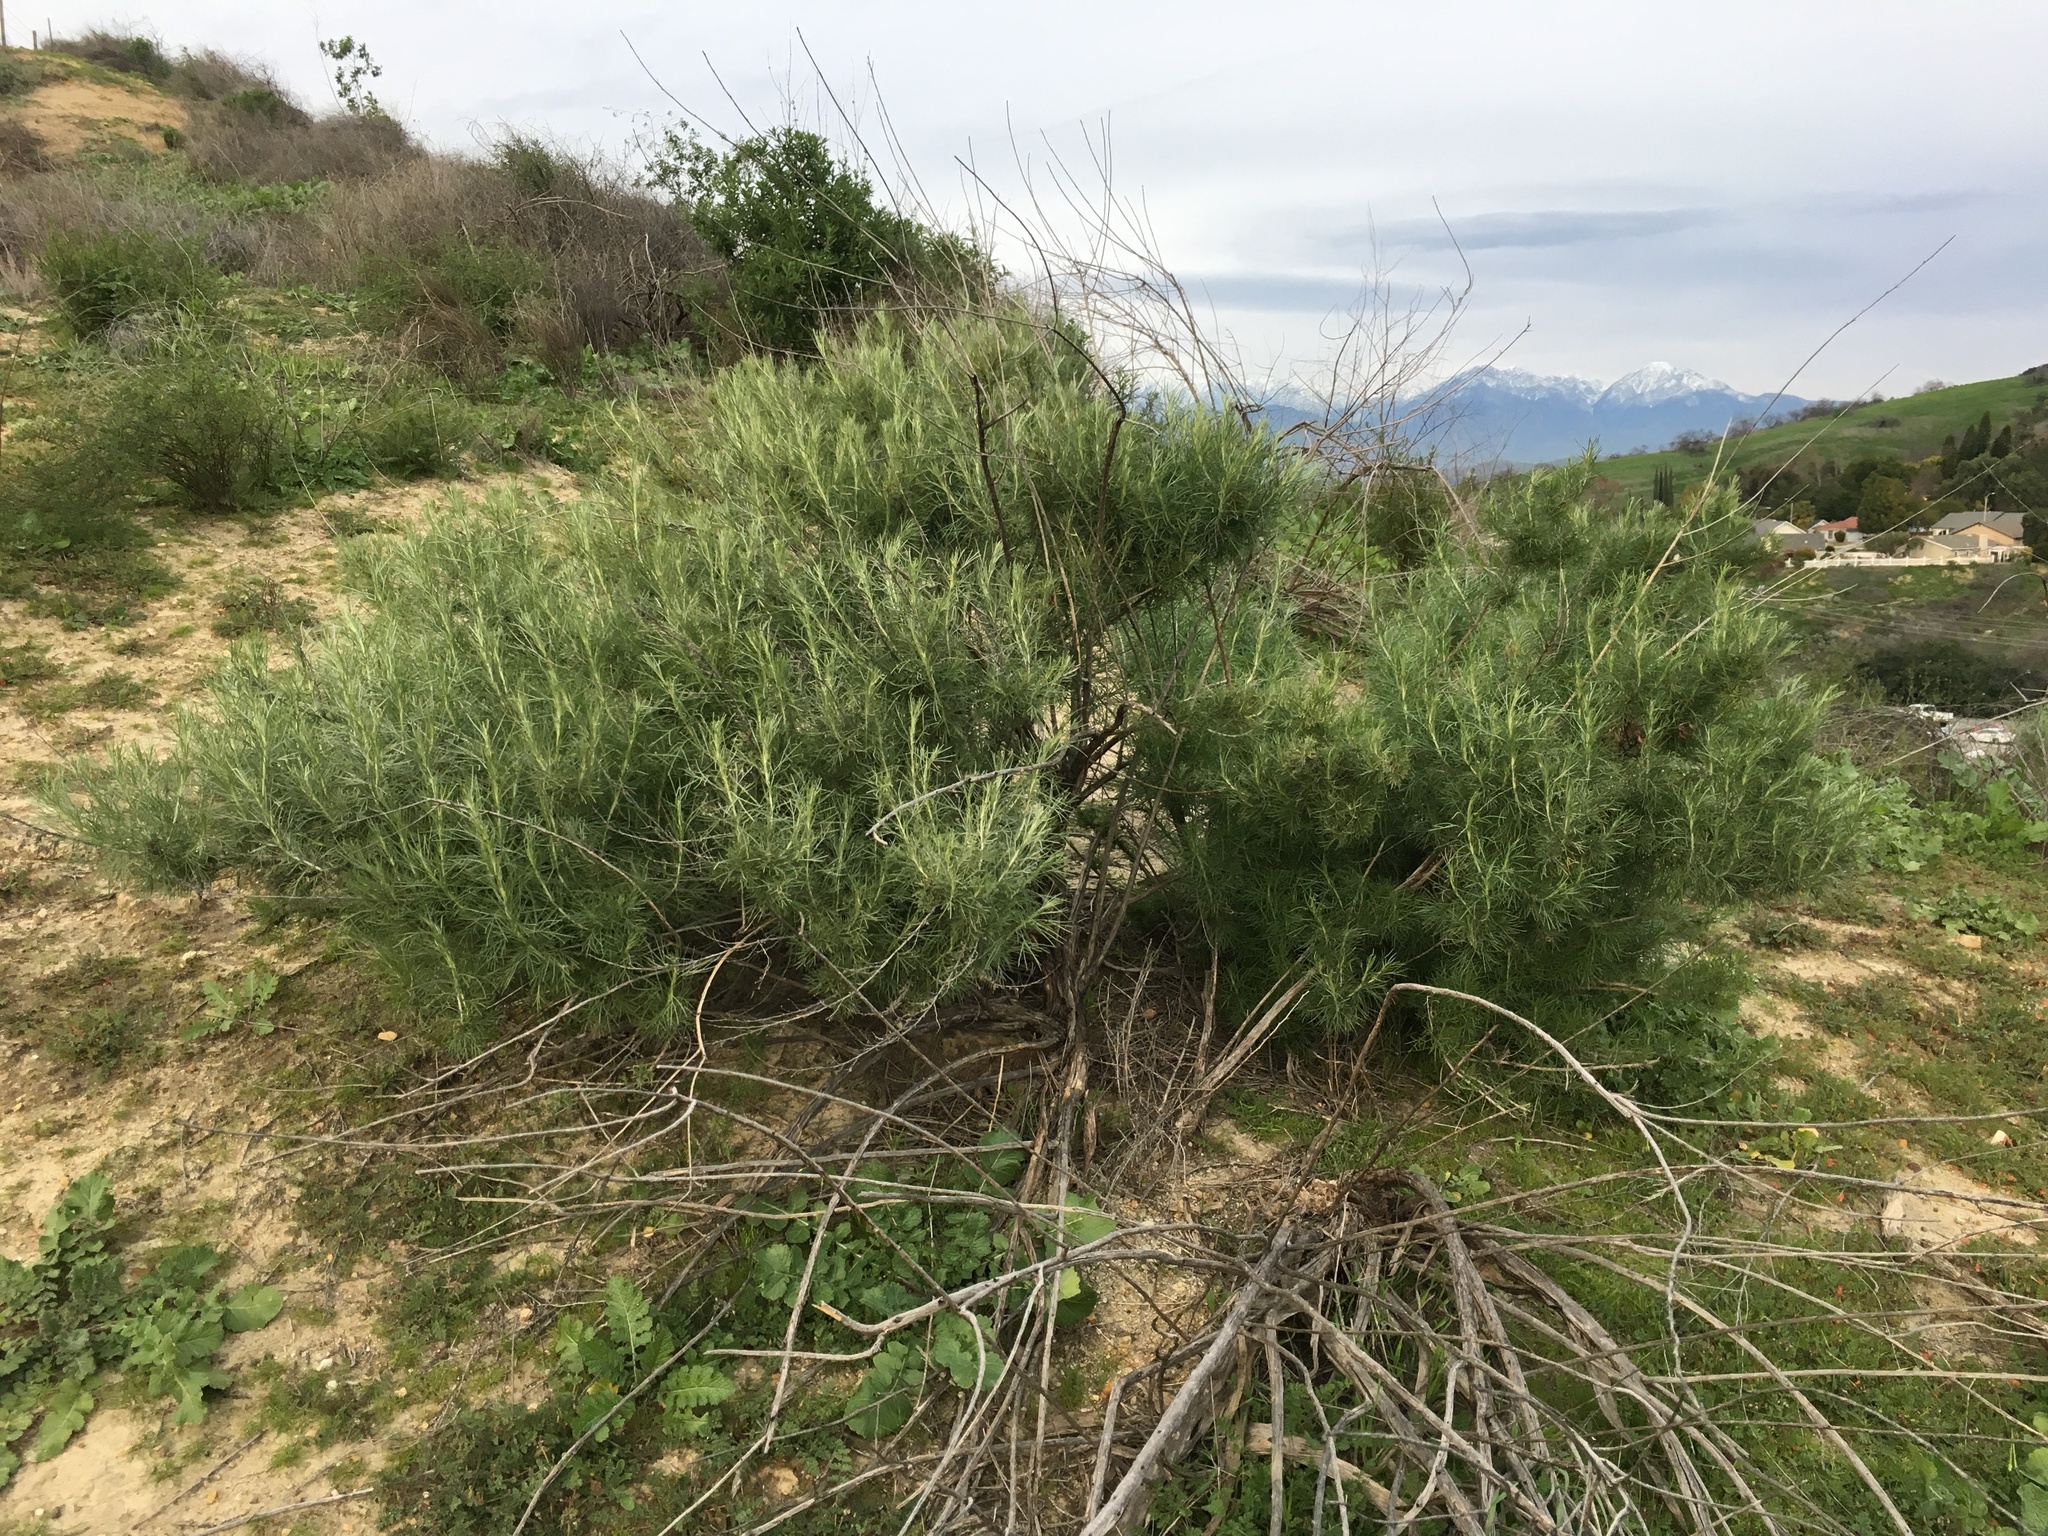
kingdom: Plantae
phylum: Tracheophyta
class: Magnoliopsida
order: Asterales
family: Asteraceae
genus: Artemisia
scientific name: Artemisia californica
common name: California sagebrush
